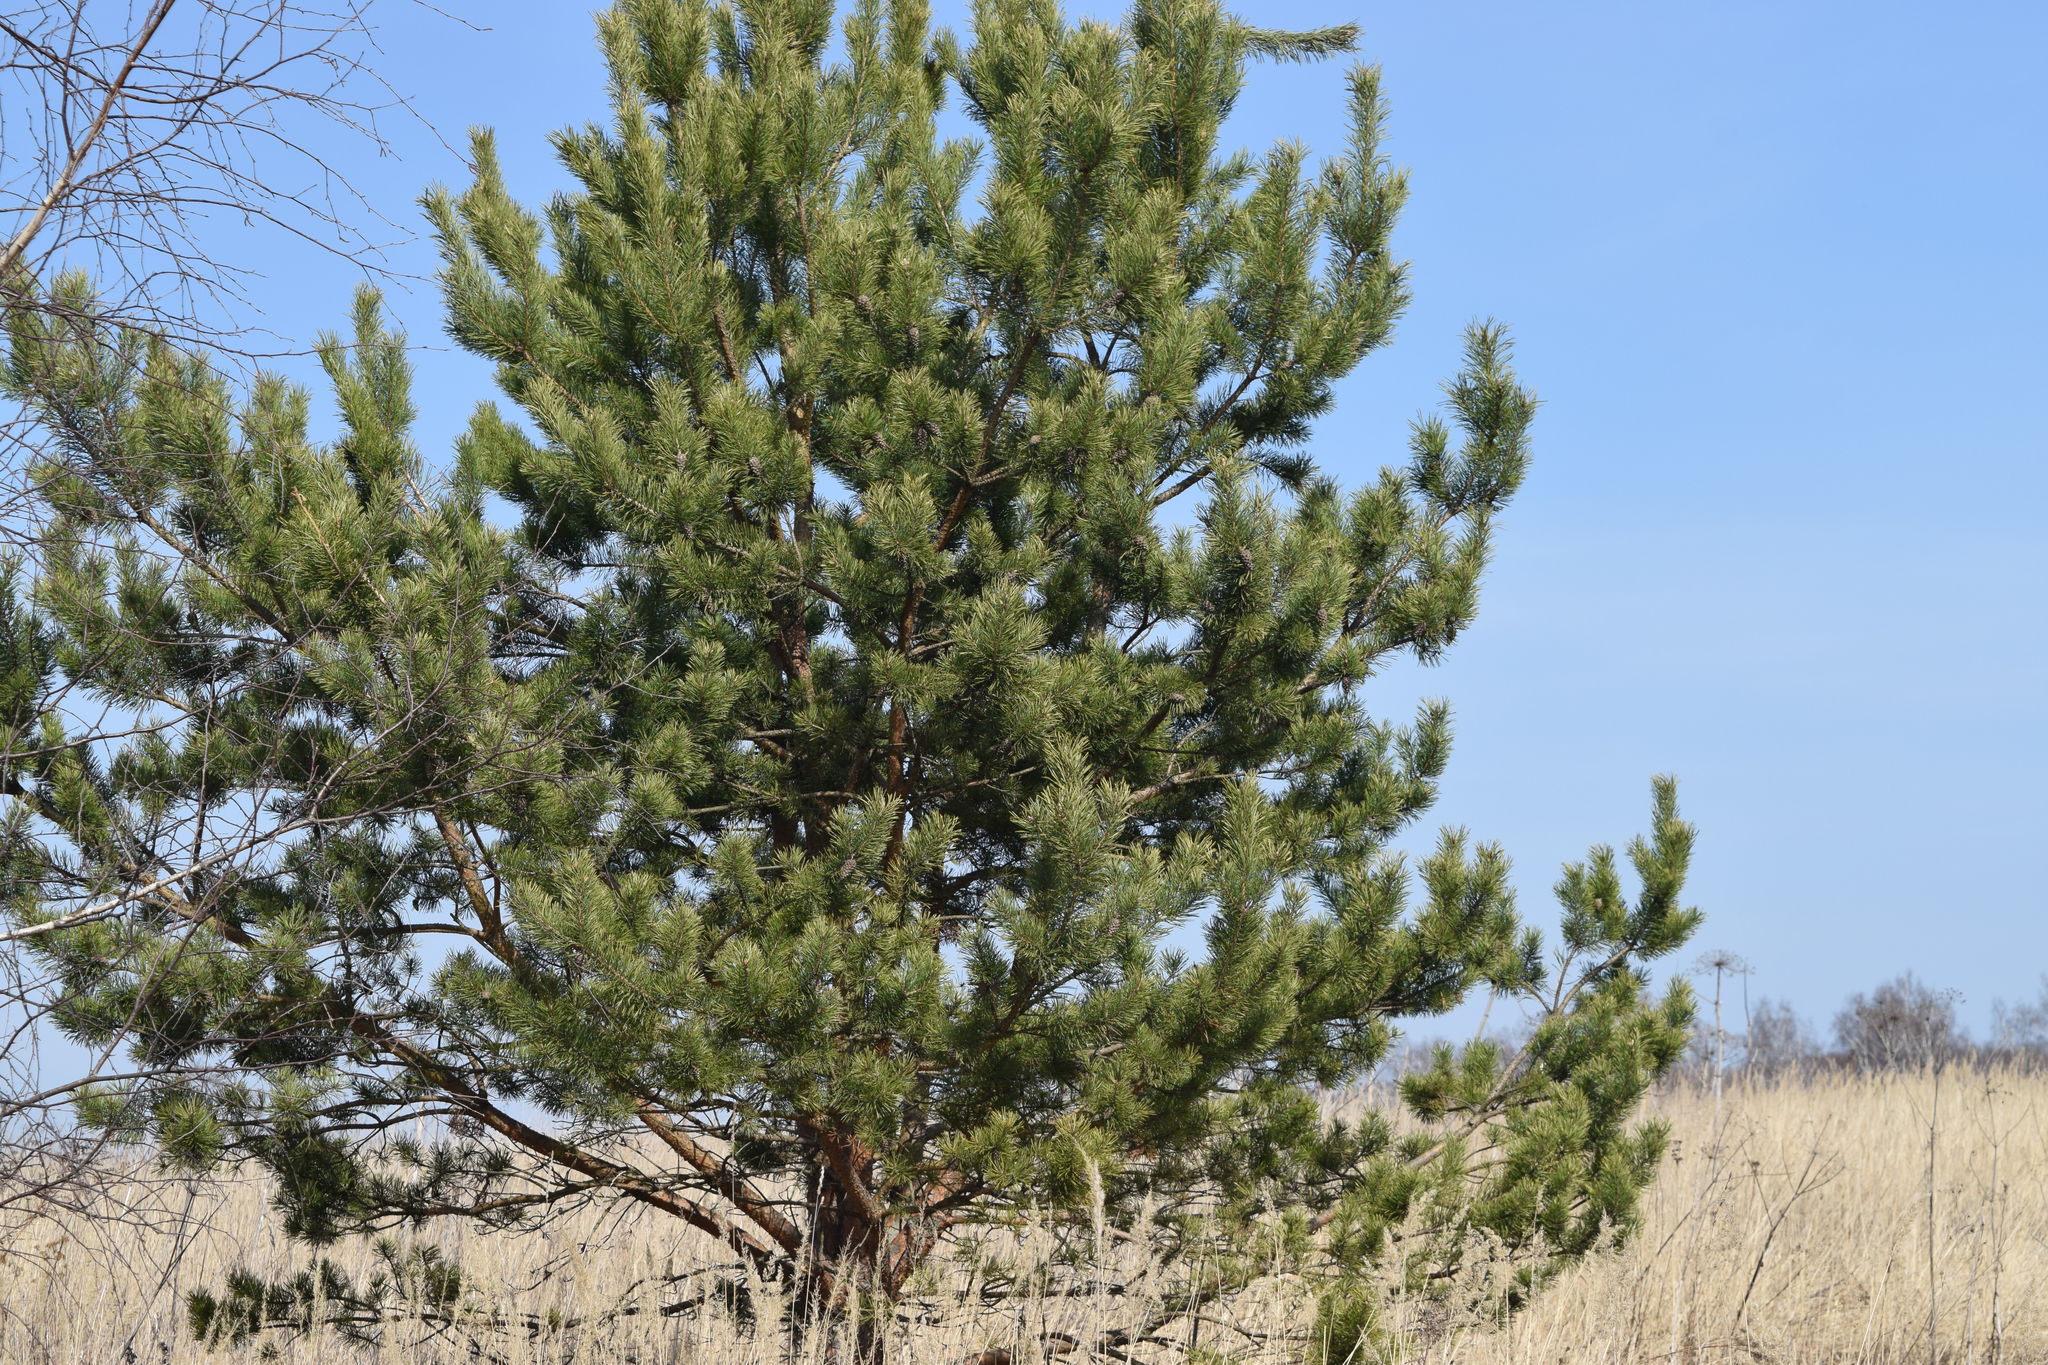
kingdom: Plantae
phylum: Tracheophyta
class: Pinopsida
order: Pinales
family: Pinaceae
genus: Pinus
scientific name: Pinus sylvestris
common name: Scots pine
